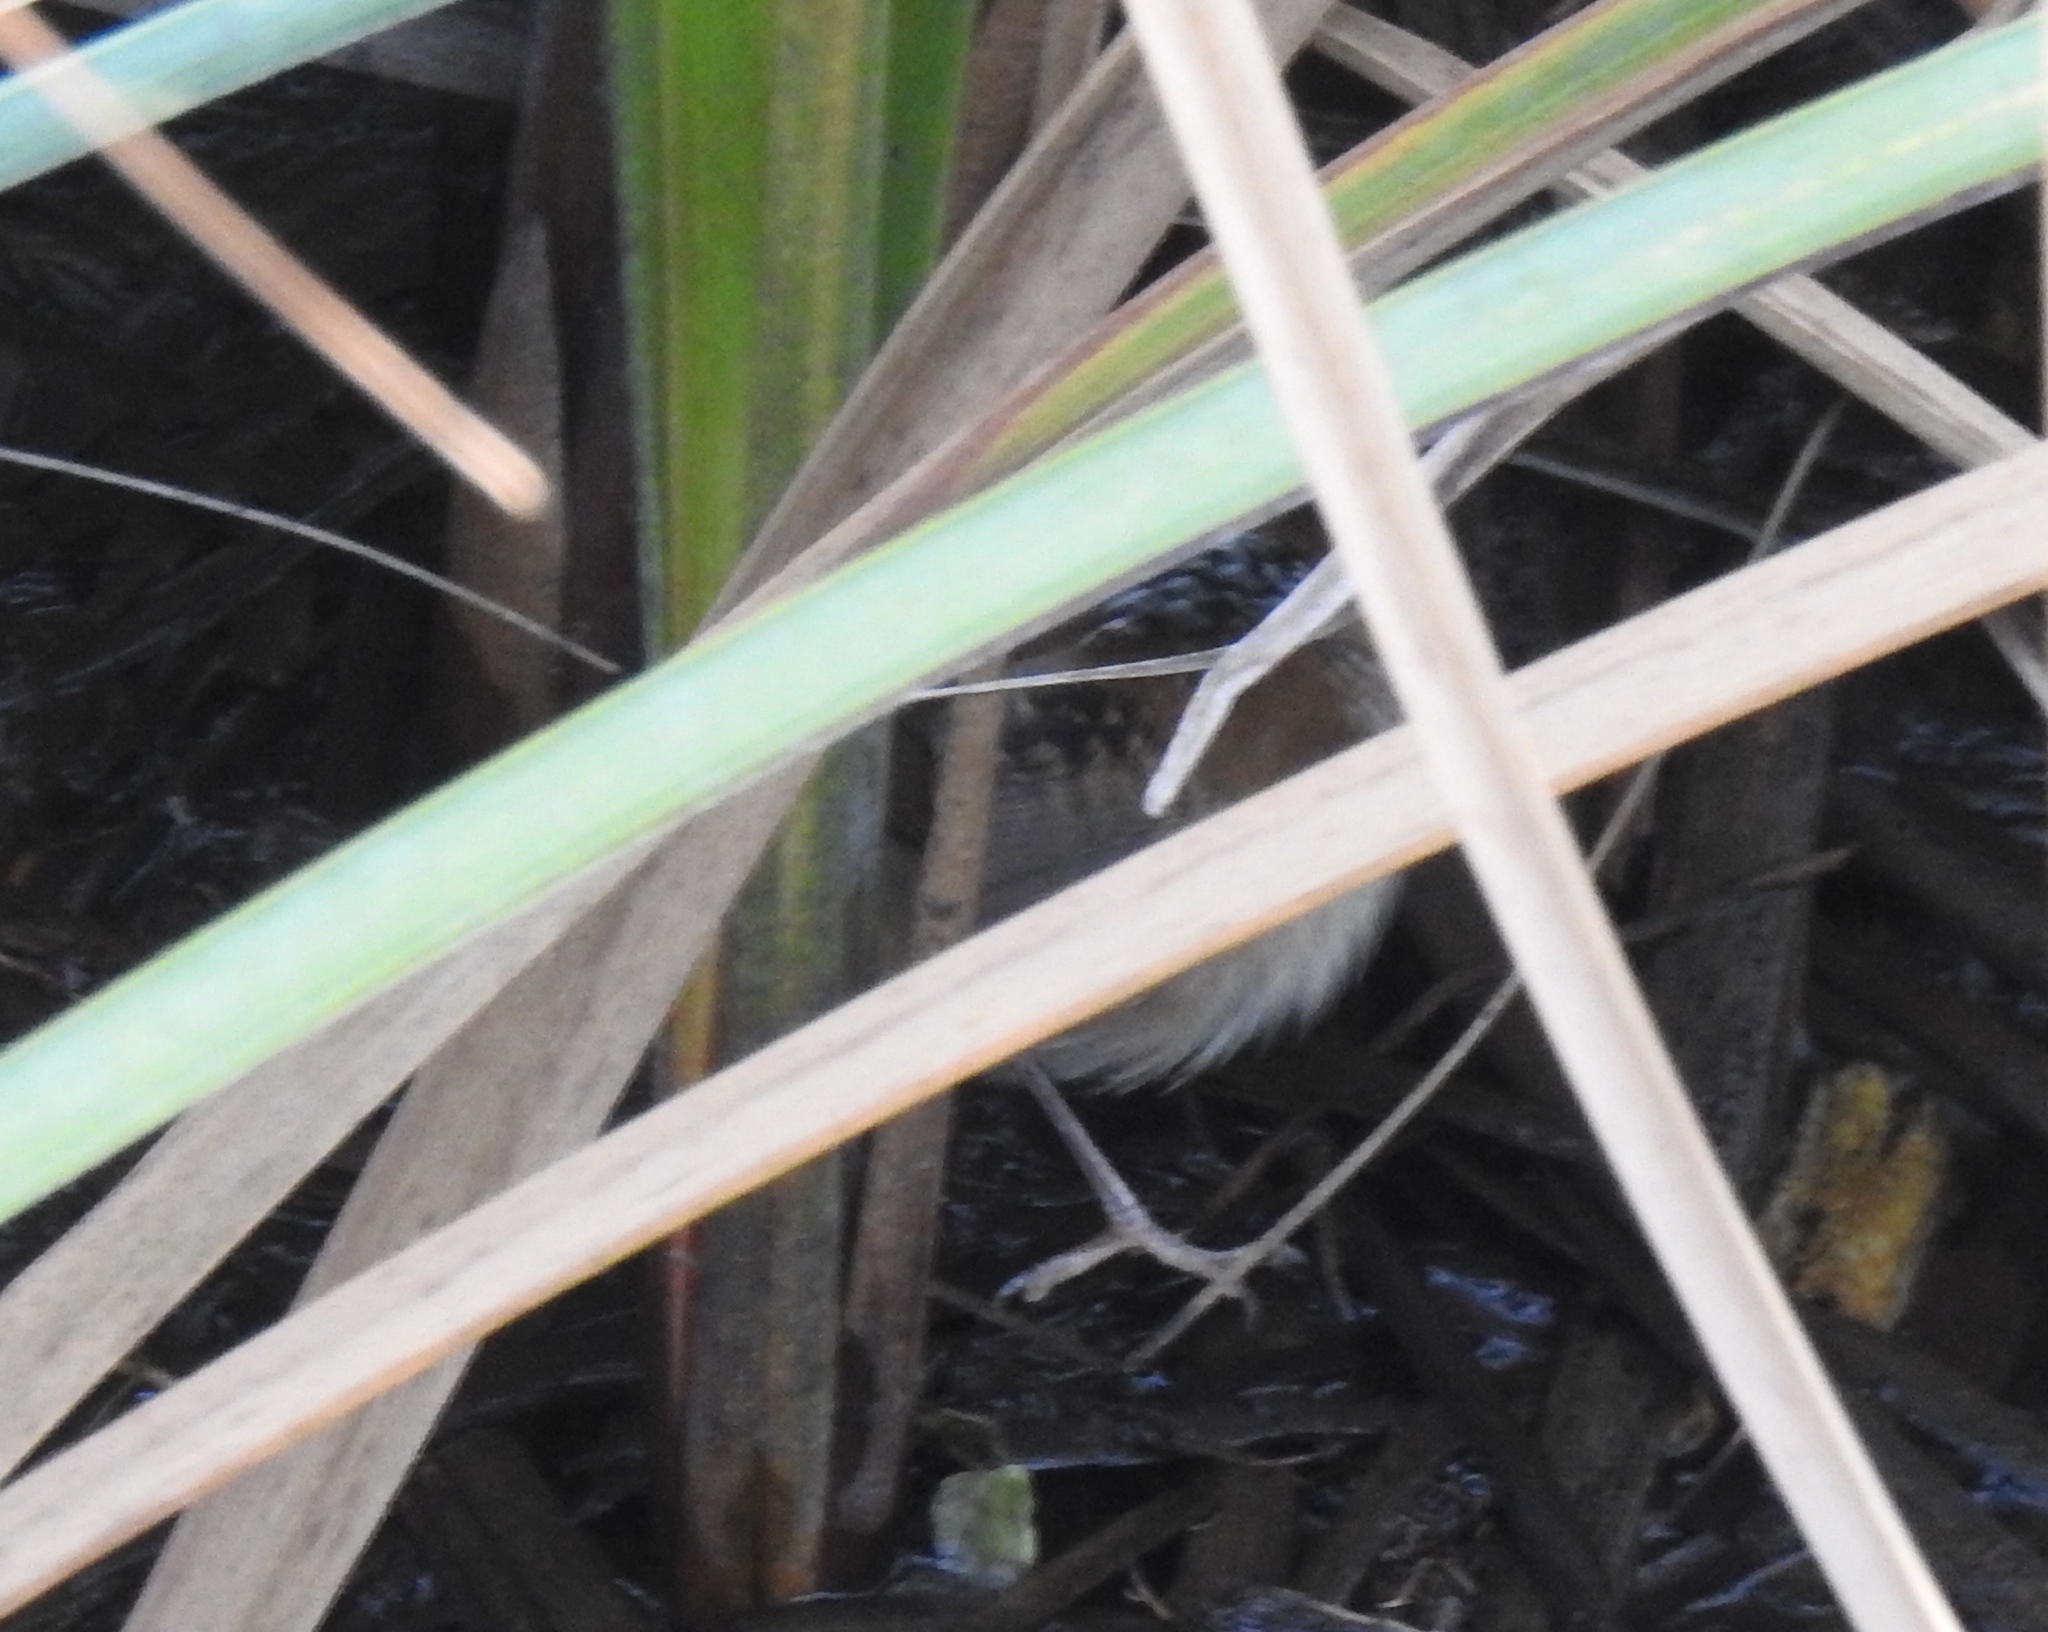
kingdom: Animalia
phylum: Chordata
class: Aves
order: Passeriformes
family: Troglodytidae
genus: Cistothorus
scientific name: Cistothorus palustris
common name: Marsh wren
